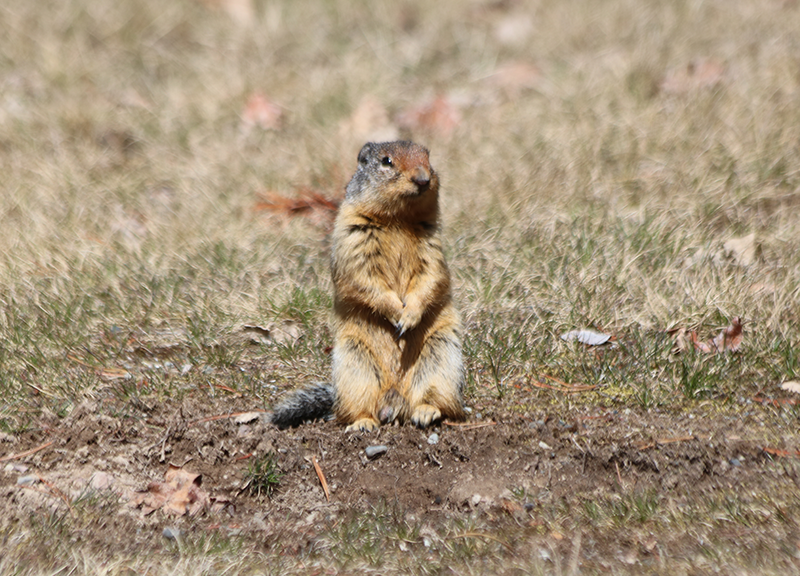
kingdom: Animalia
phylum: Chordata
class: Mammalia
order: Rodentia
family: Sciuridae
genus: Urocitellus
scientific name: Urocitellus columbianus
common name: Columbian ground squirrel
